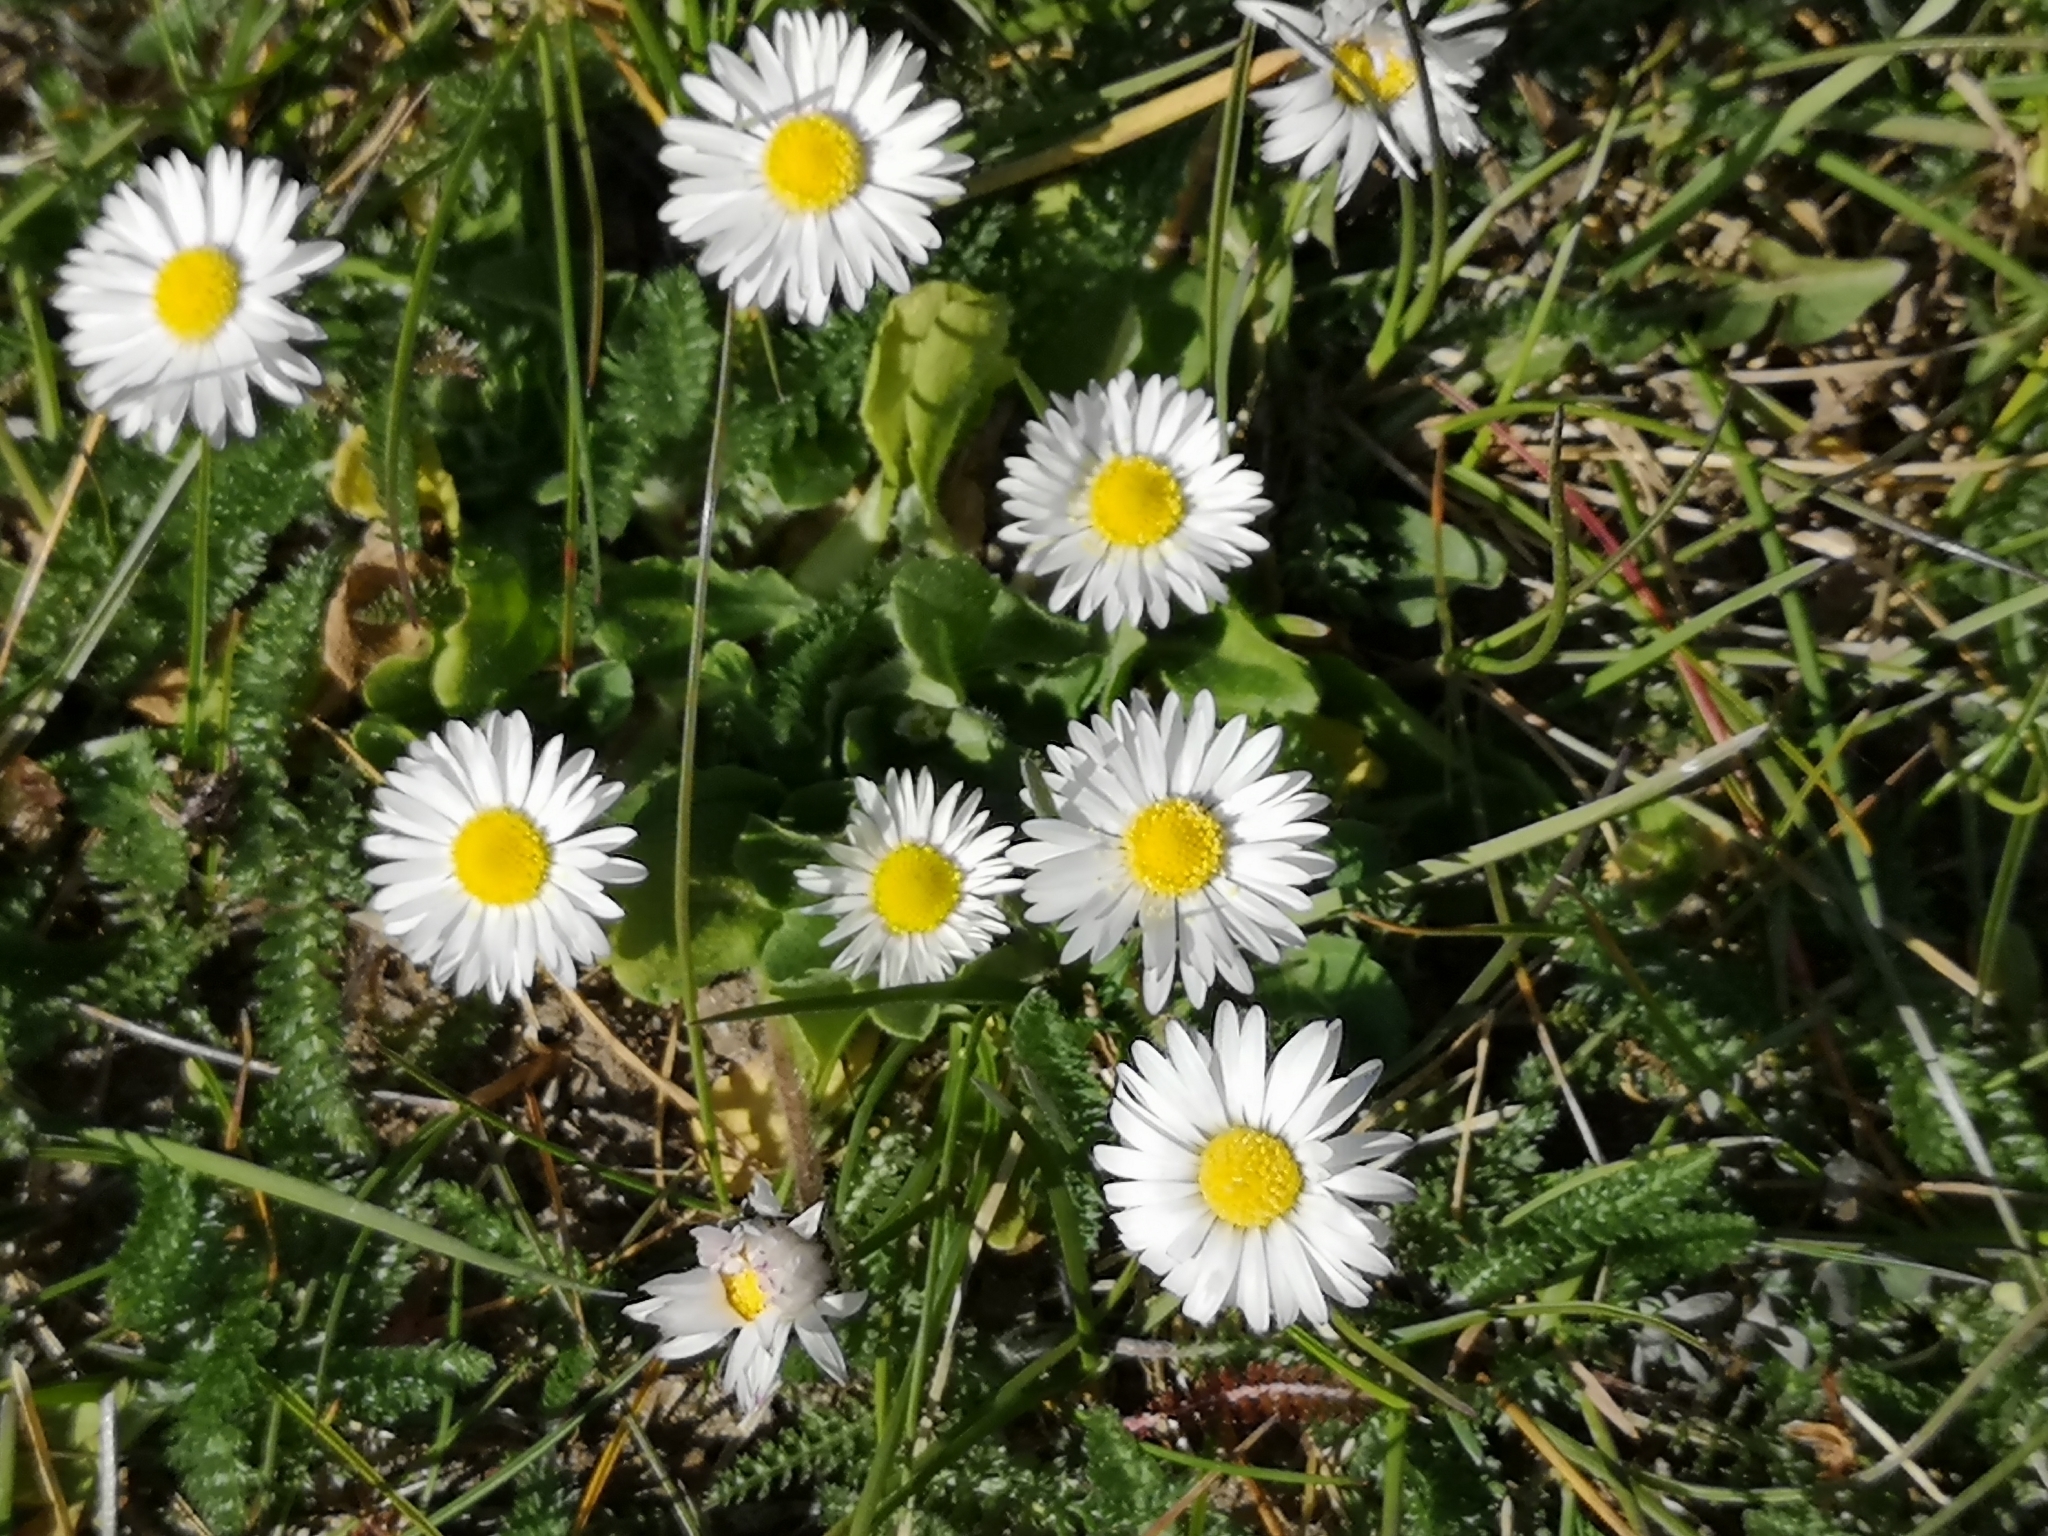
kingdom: Plantae
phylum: Tracheophyta
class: Magnoliopsida
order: Asterales
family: Asteraceae
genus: Bellis
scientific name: Bellis perennis
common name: Lawndaisy
